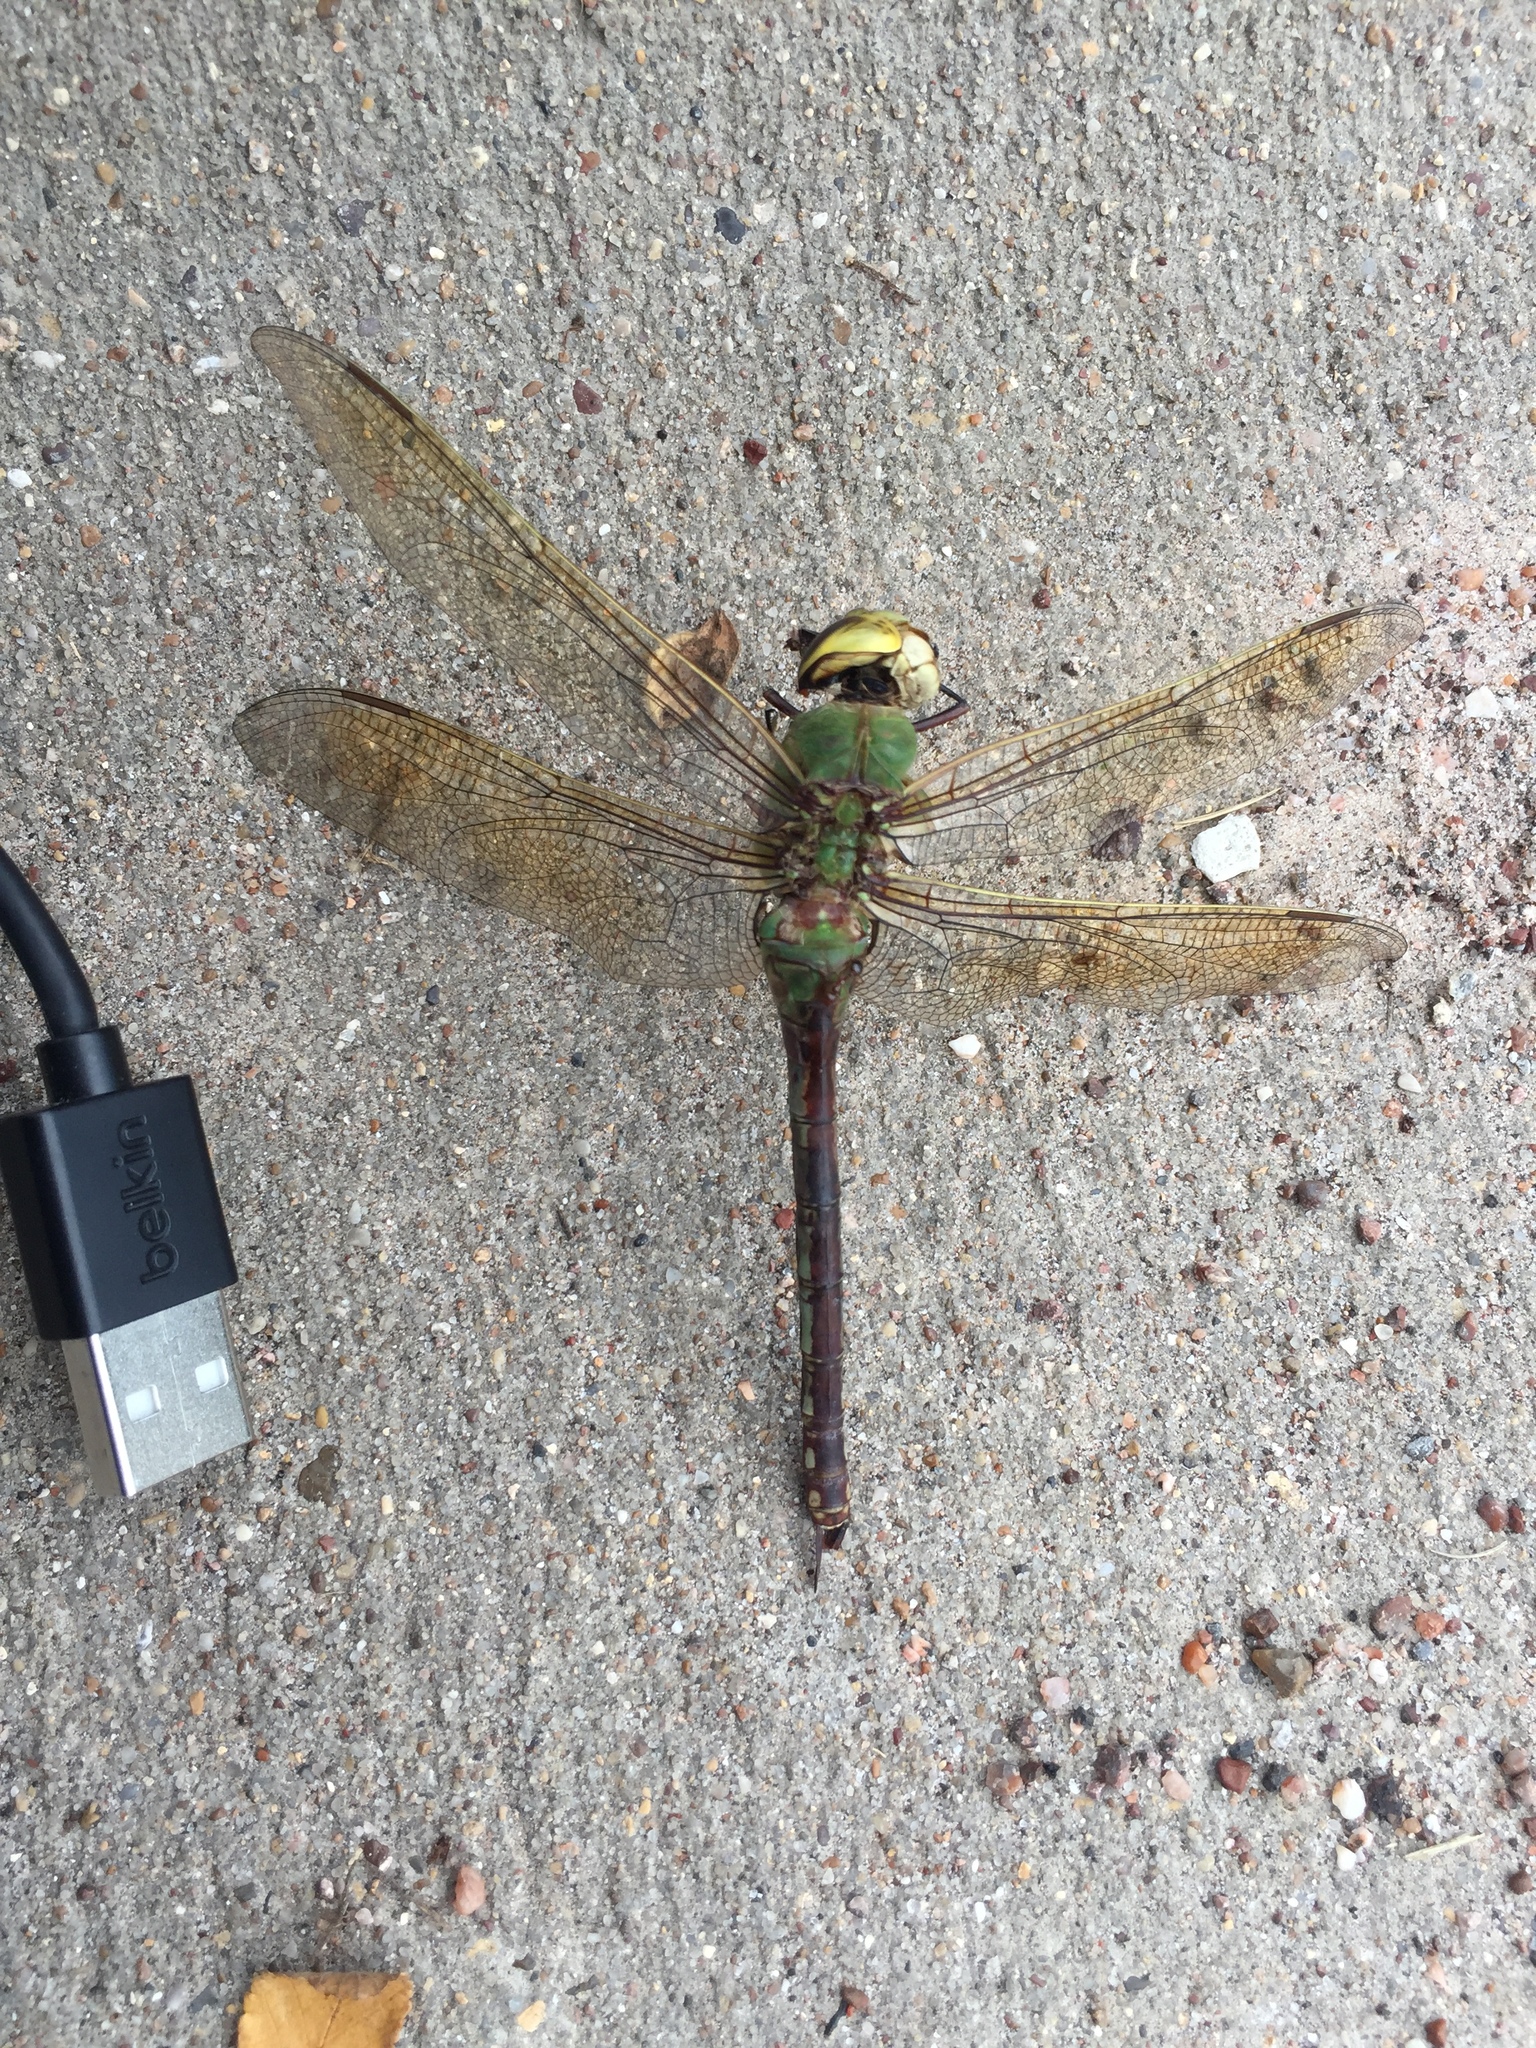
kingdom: Animalia
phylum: Arthropoda
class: Insecta
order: Odonata
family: Aeshnidae
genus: Anax
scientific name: Anax junius
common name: Common green darner
